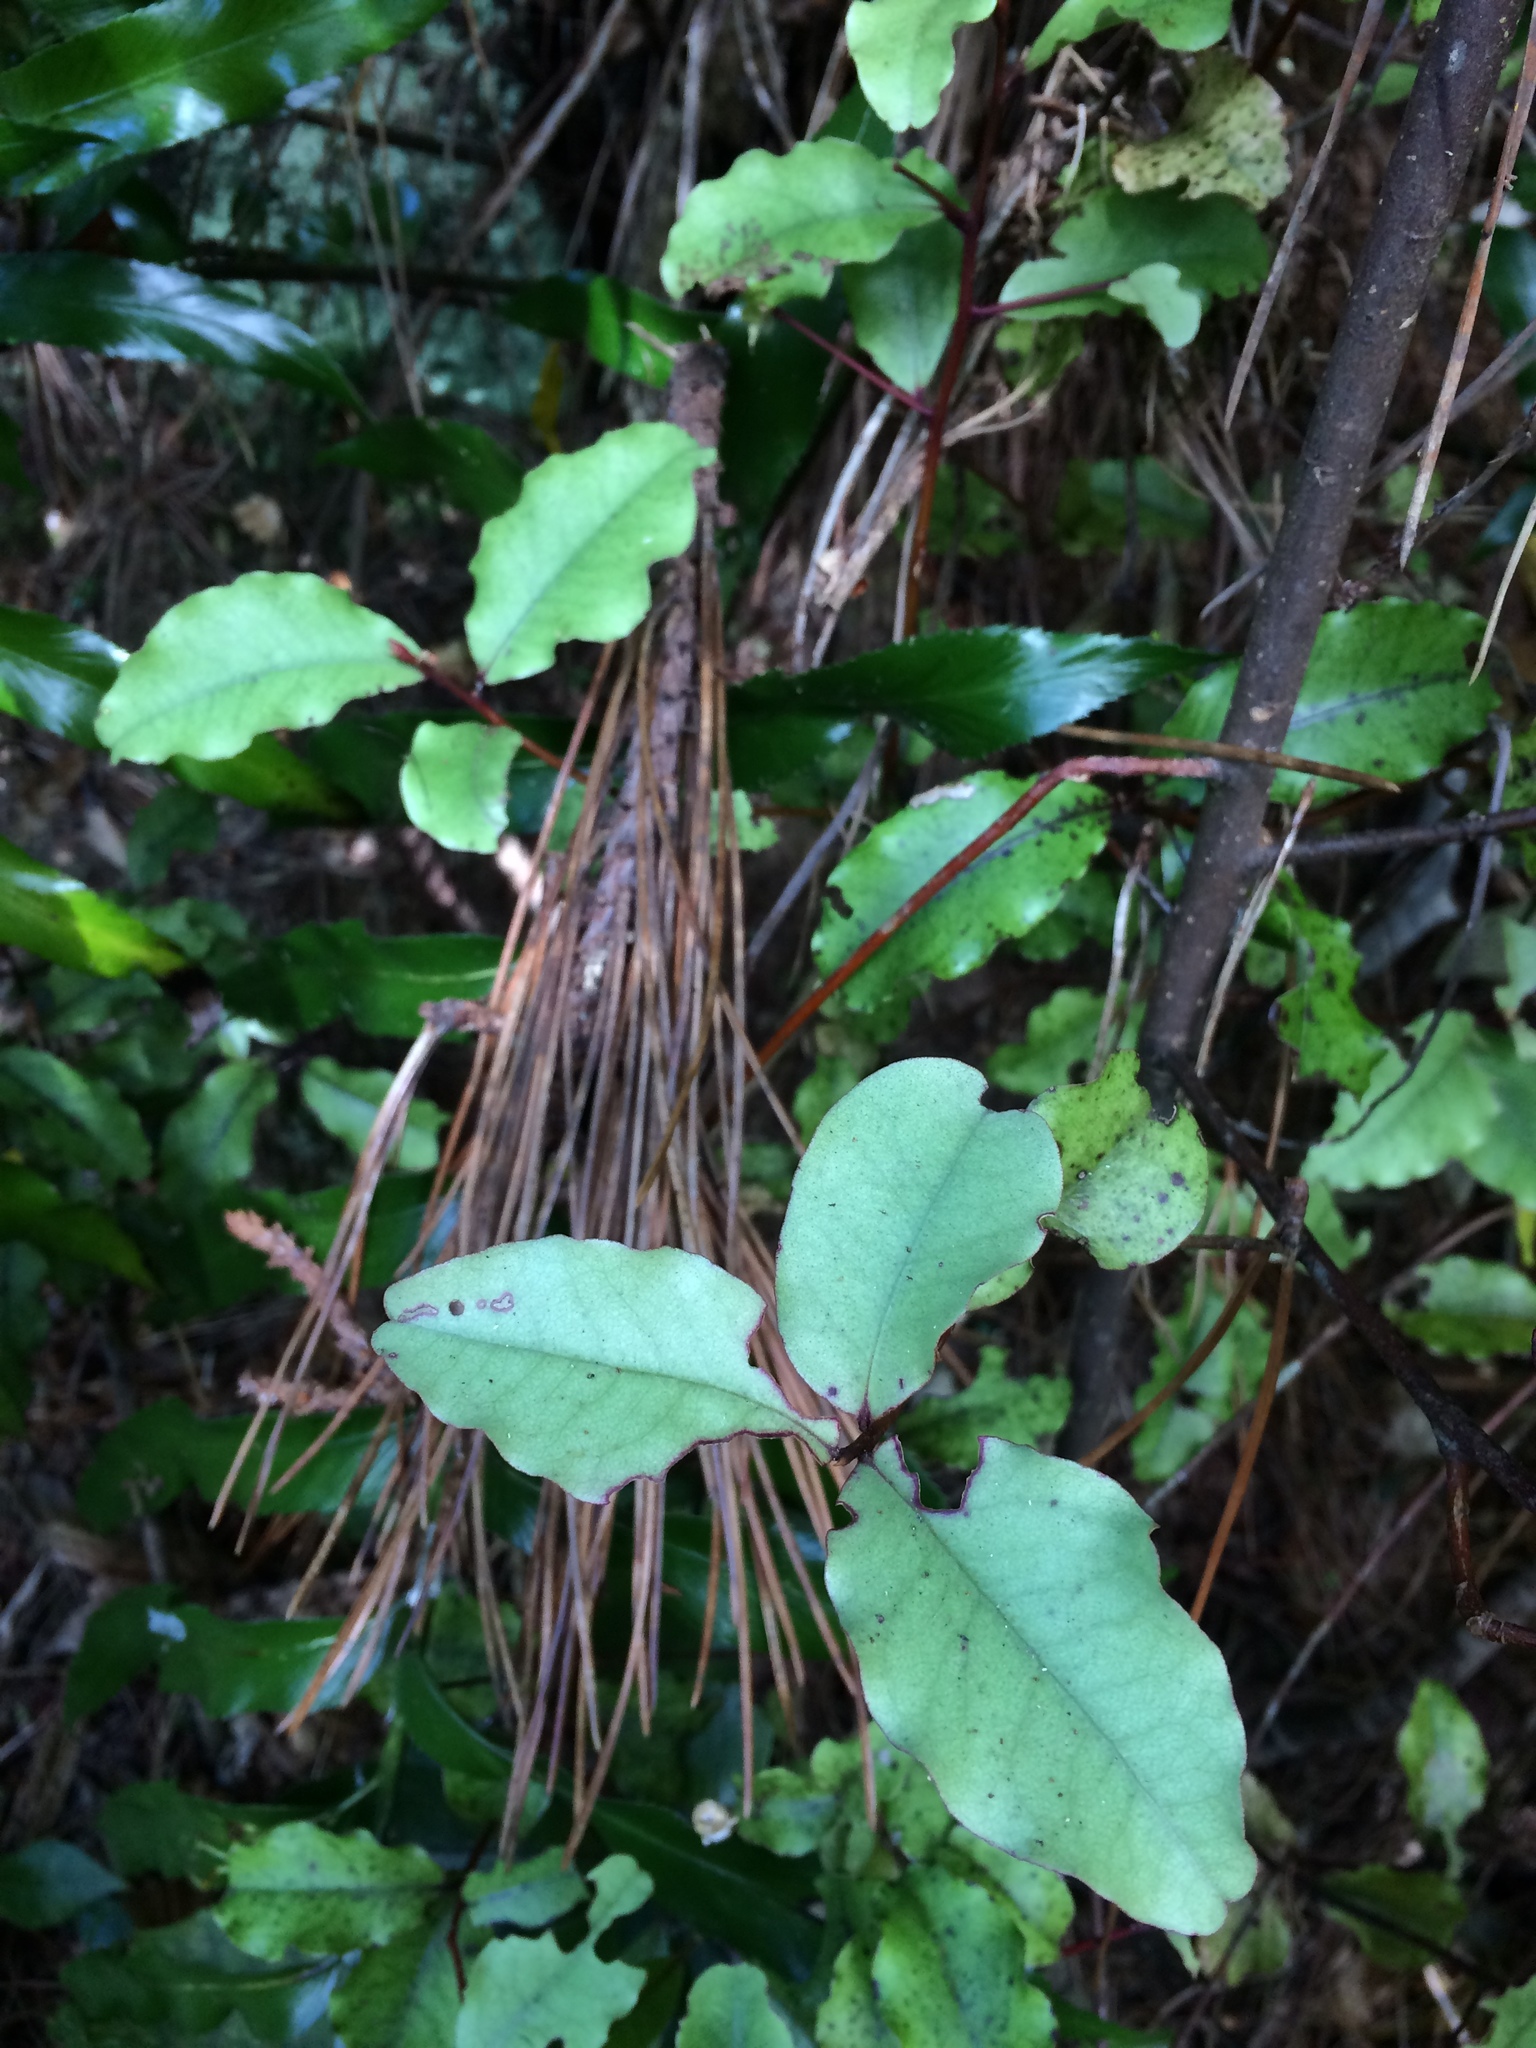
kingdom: Plantae
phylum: Tracheophyta
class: Magnoliopsida
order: Ericales
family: Primulaceae
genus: Myrsine
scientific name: Myrsine australis
